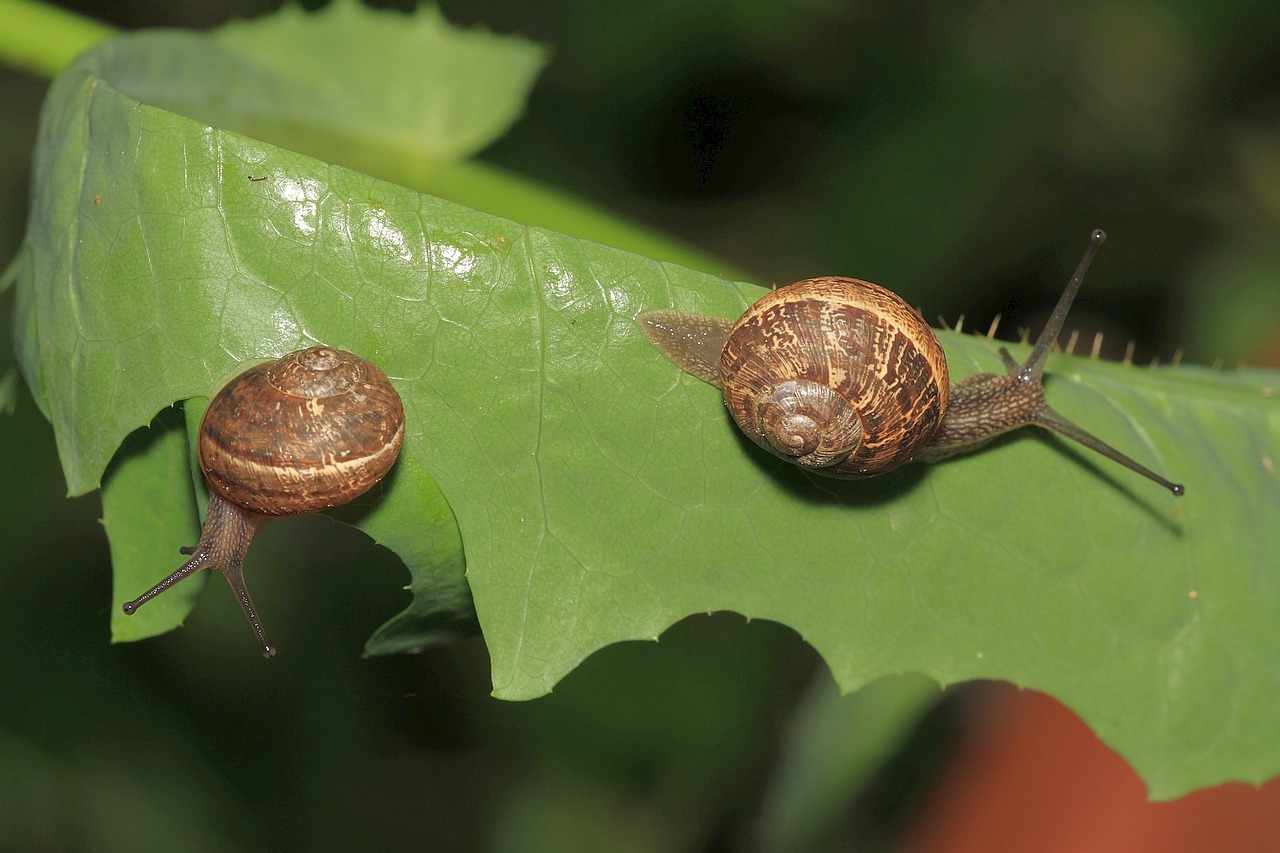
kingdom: Animalia
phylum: Mollusca
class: Gastropoda
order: Stylommatophora
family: Helicidae
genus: Cornu
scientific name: Cornu aspersum
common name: Brown garden snail
